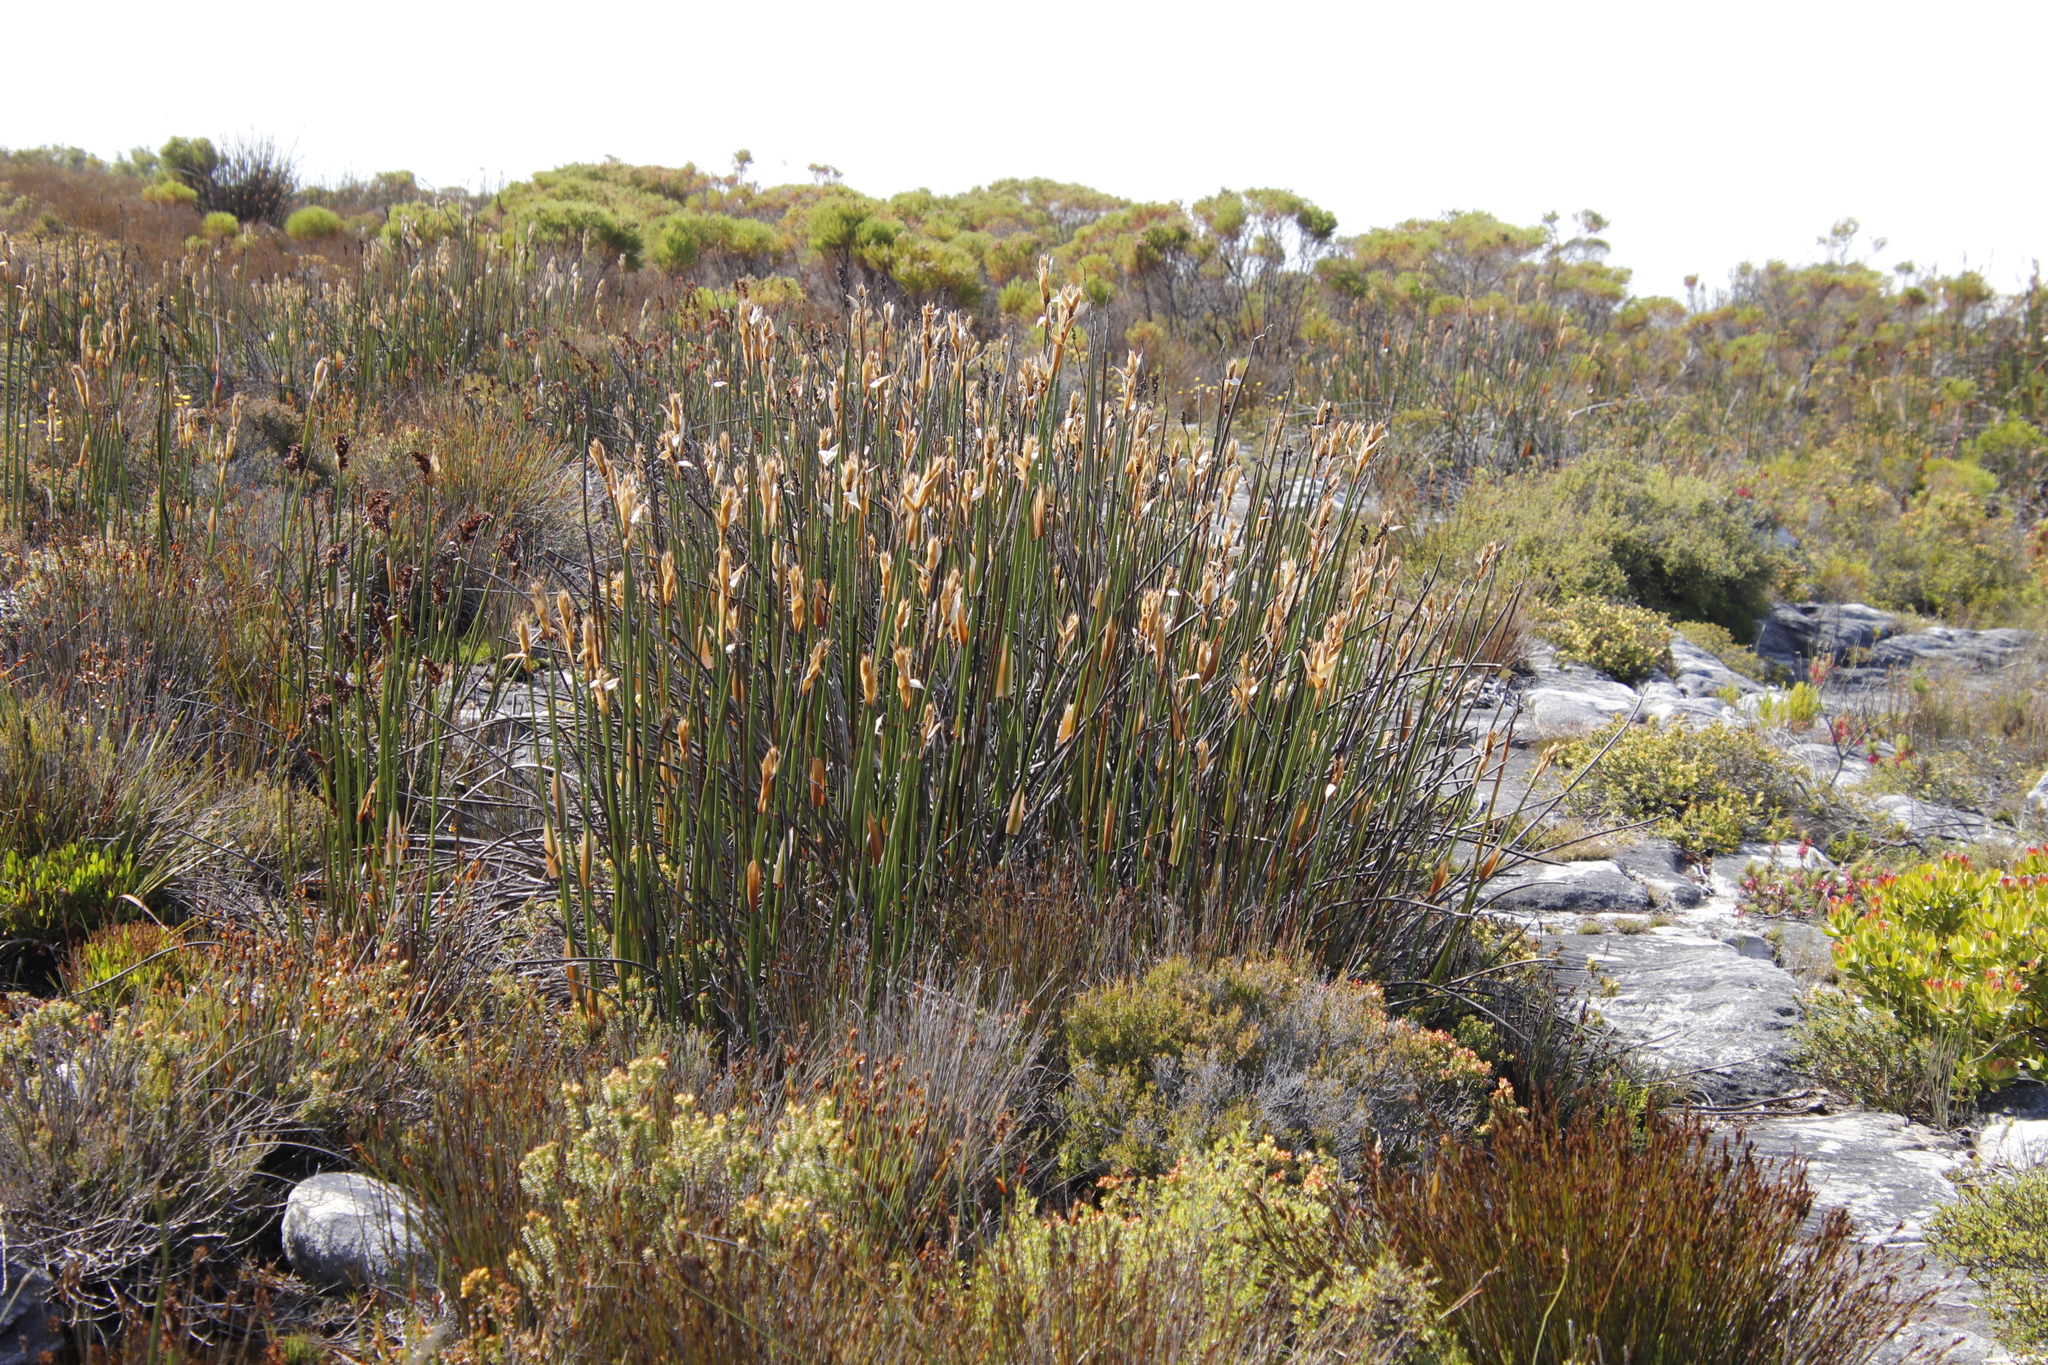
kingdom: Plantae
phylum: Tracheophyta
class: Liliopsida
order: Poales
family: Restionaceae
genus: Elegia
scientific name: Elegia mucronata
